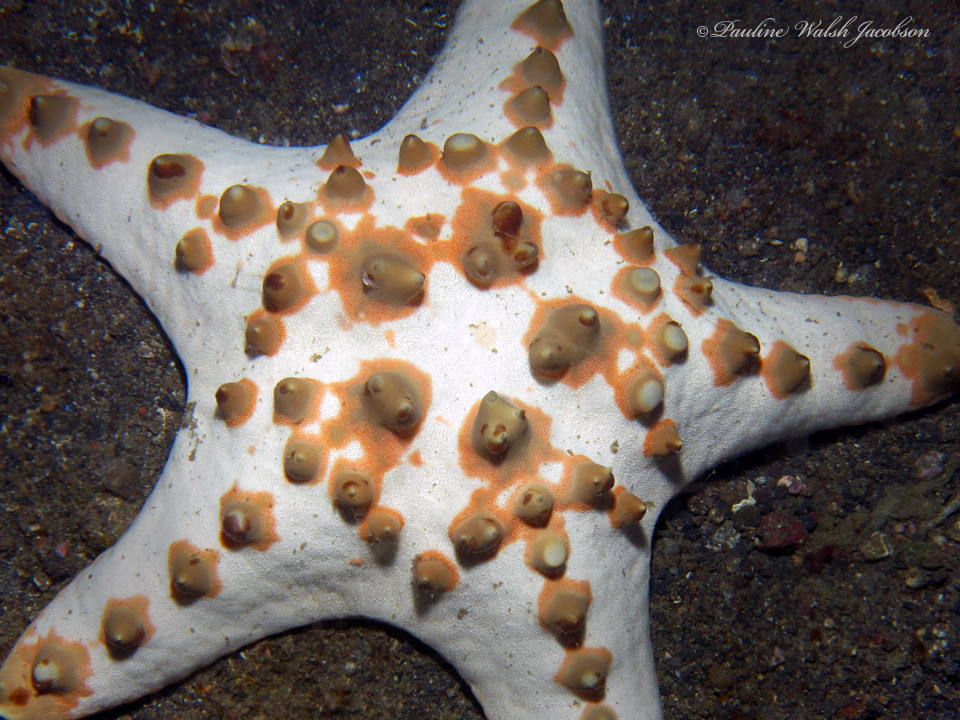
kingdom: Animalia
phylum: Echinodermata
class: Asteroidea
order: Valvatida
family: Oreasteridae
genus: Protoreaster
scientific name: Protoreaster nodosus
